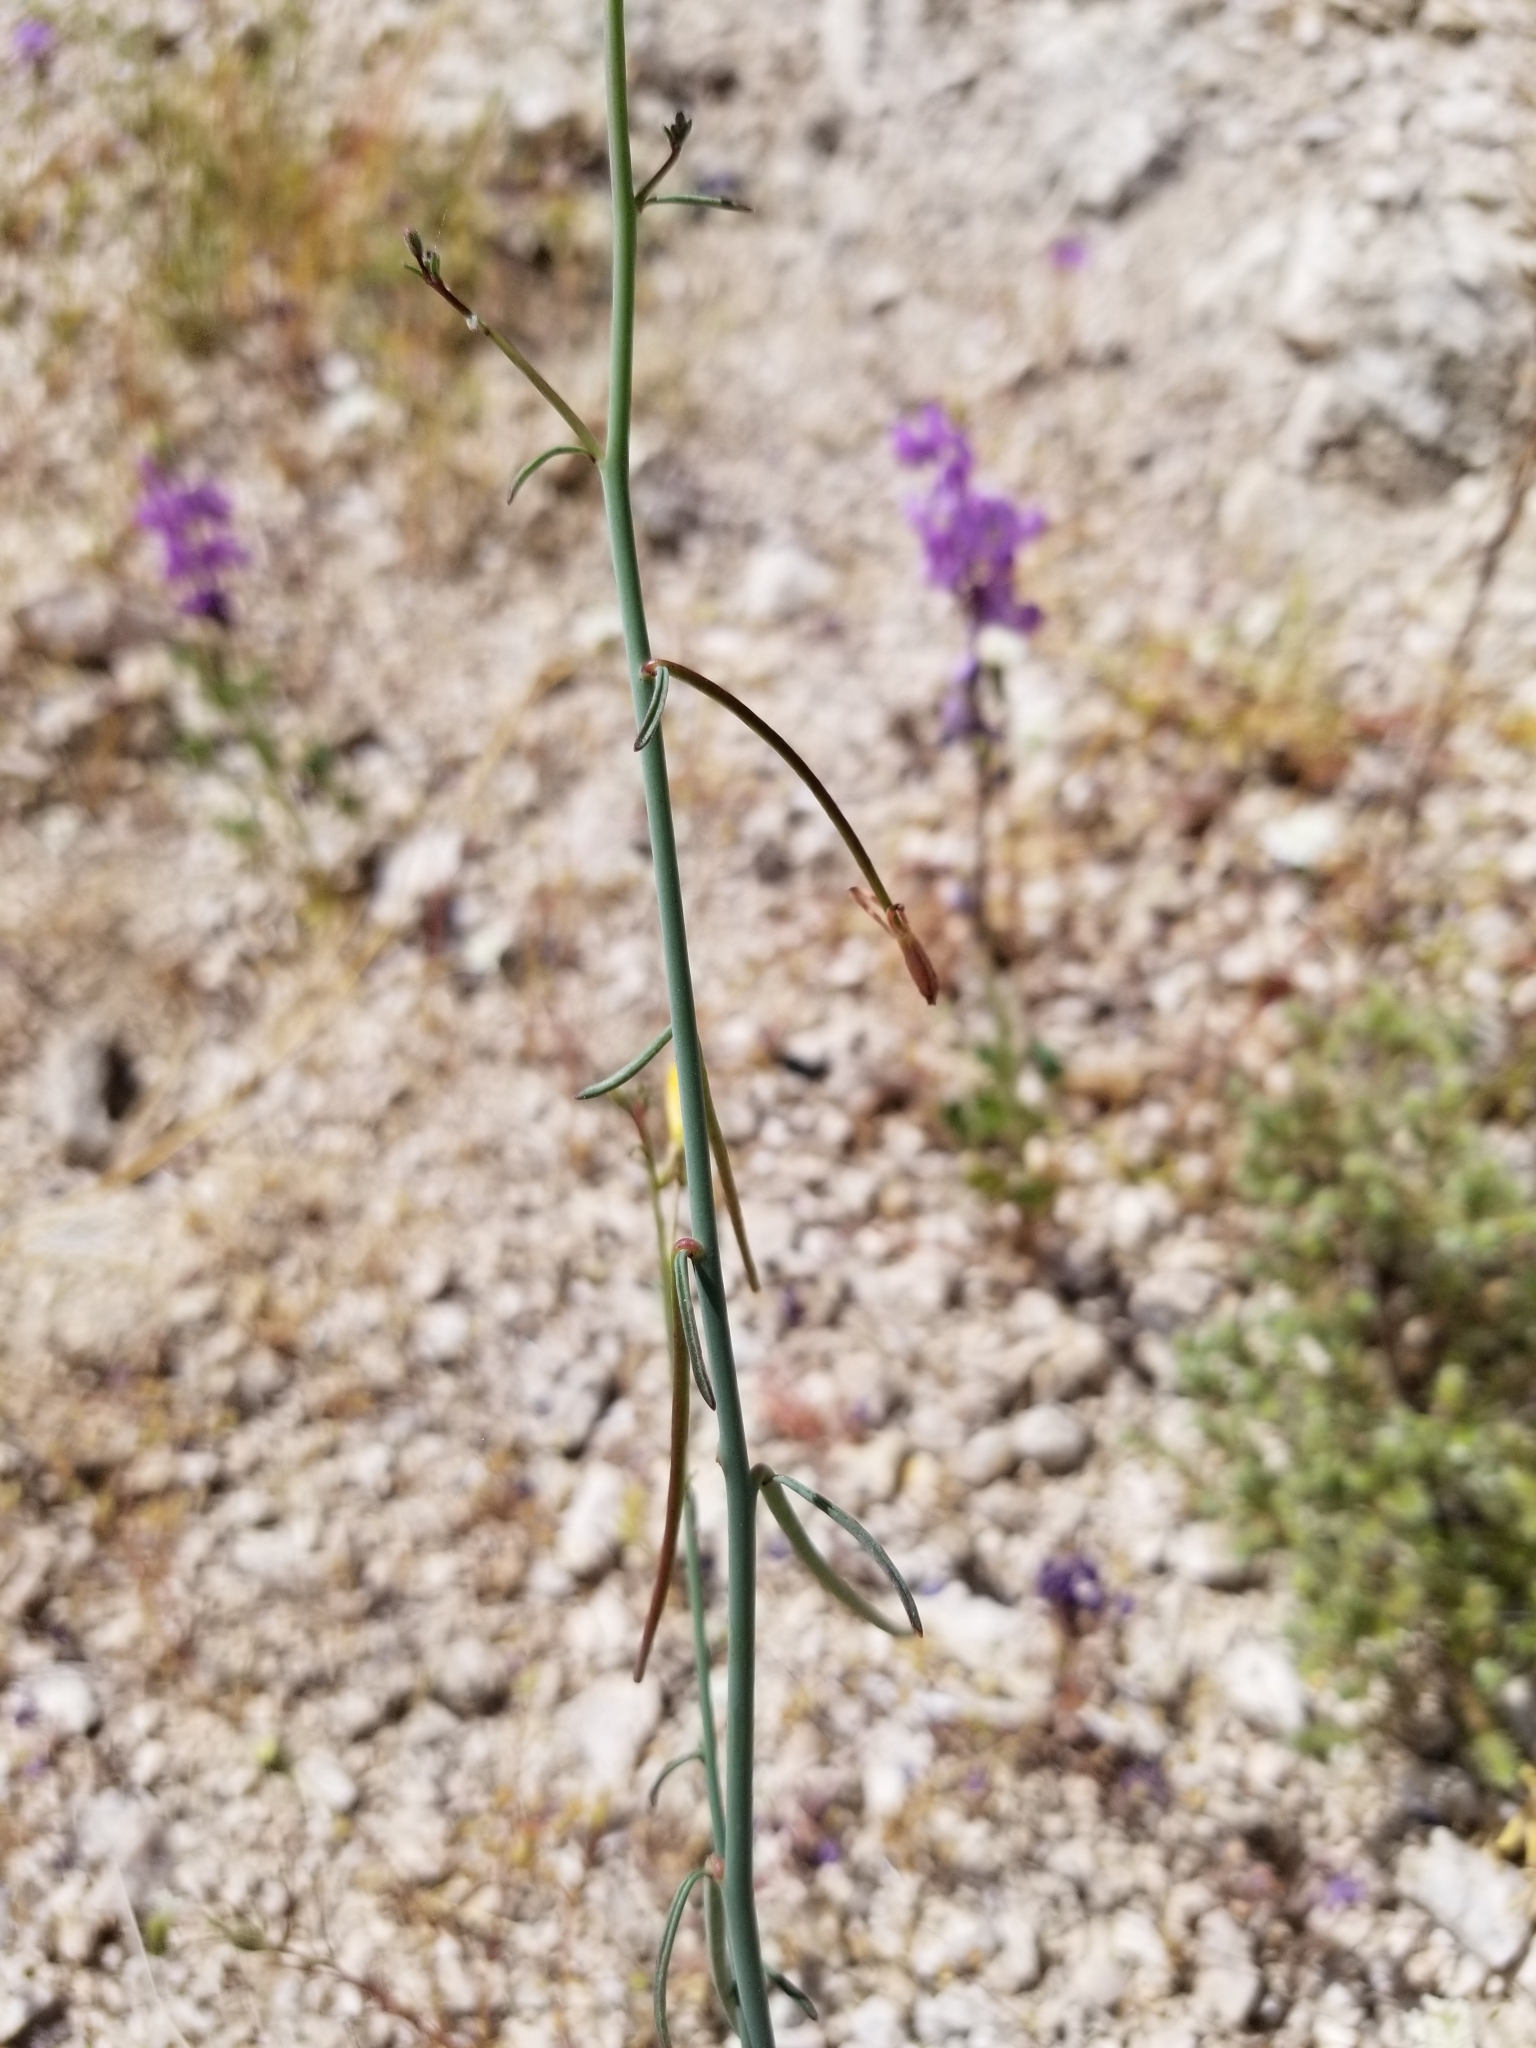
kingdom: Plantae
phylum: Tracheophyta
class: Magnoliopsida
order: Myrtales
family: Onagraceae
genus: Eulobus
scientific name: Eulobus californicus
